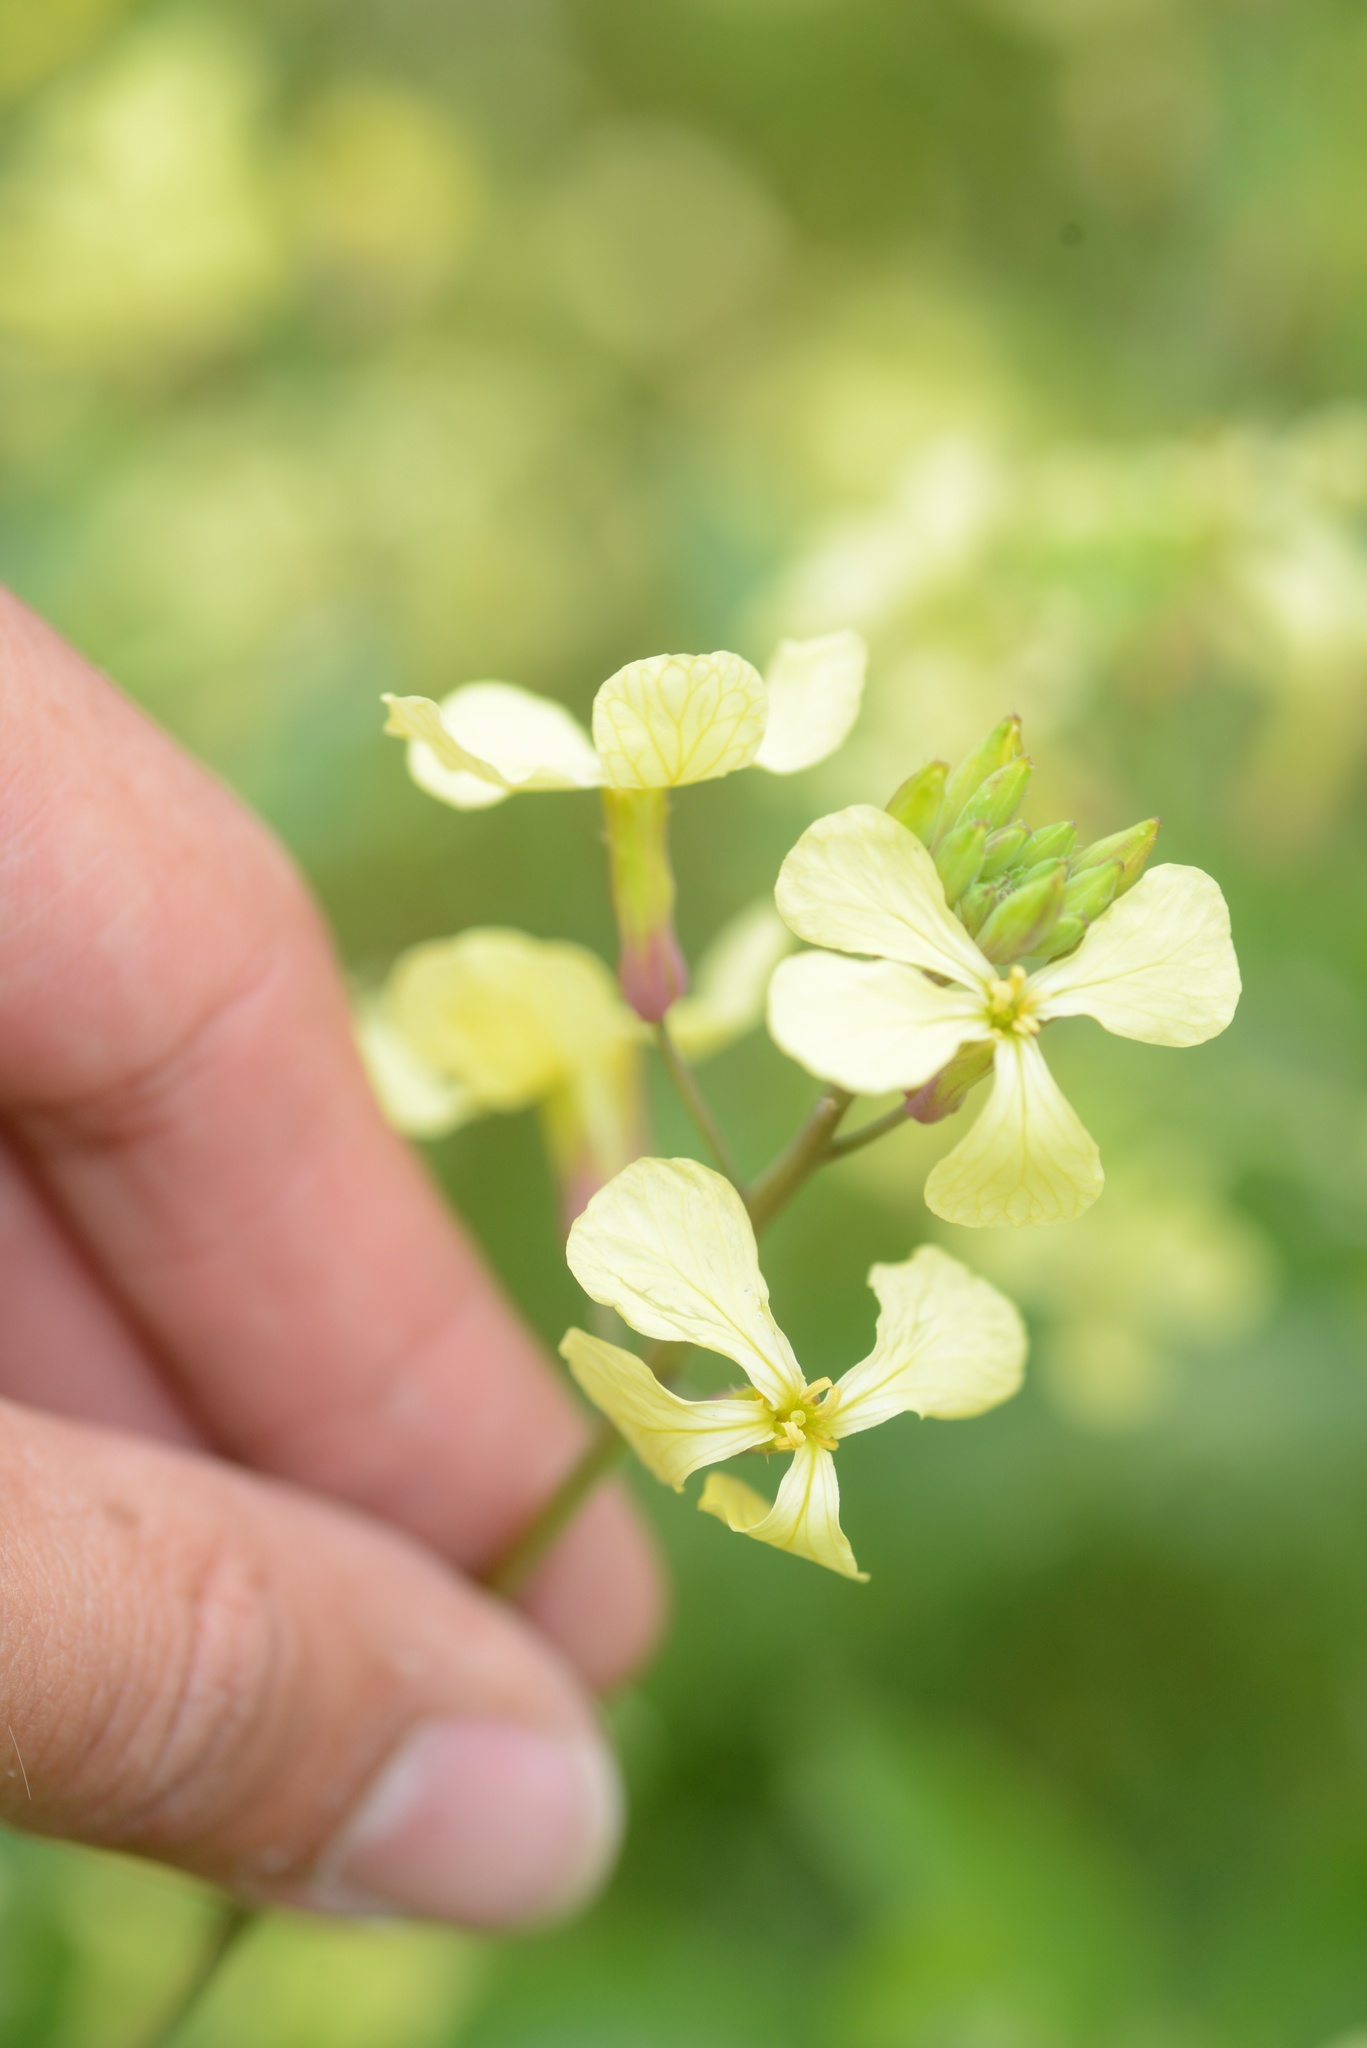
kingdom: Plantae
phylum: Tracheophyta
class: Magnoliopsida
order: Brassicales
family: Brassicaceae
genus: Raphanus
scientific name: Raphanus raphanistrum
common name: Wild radish
